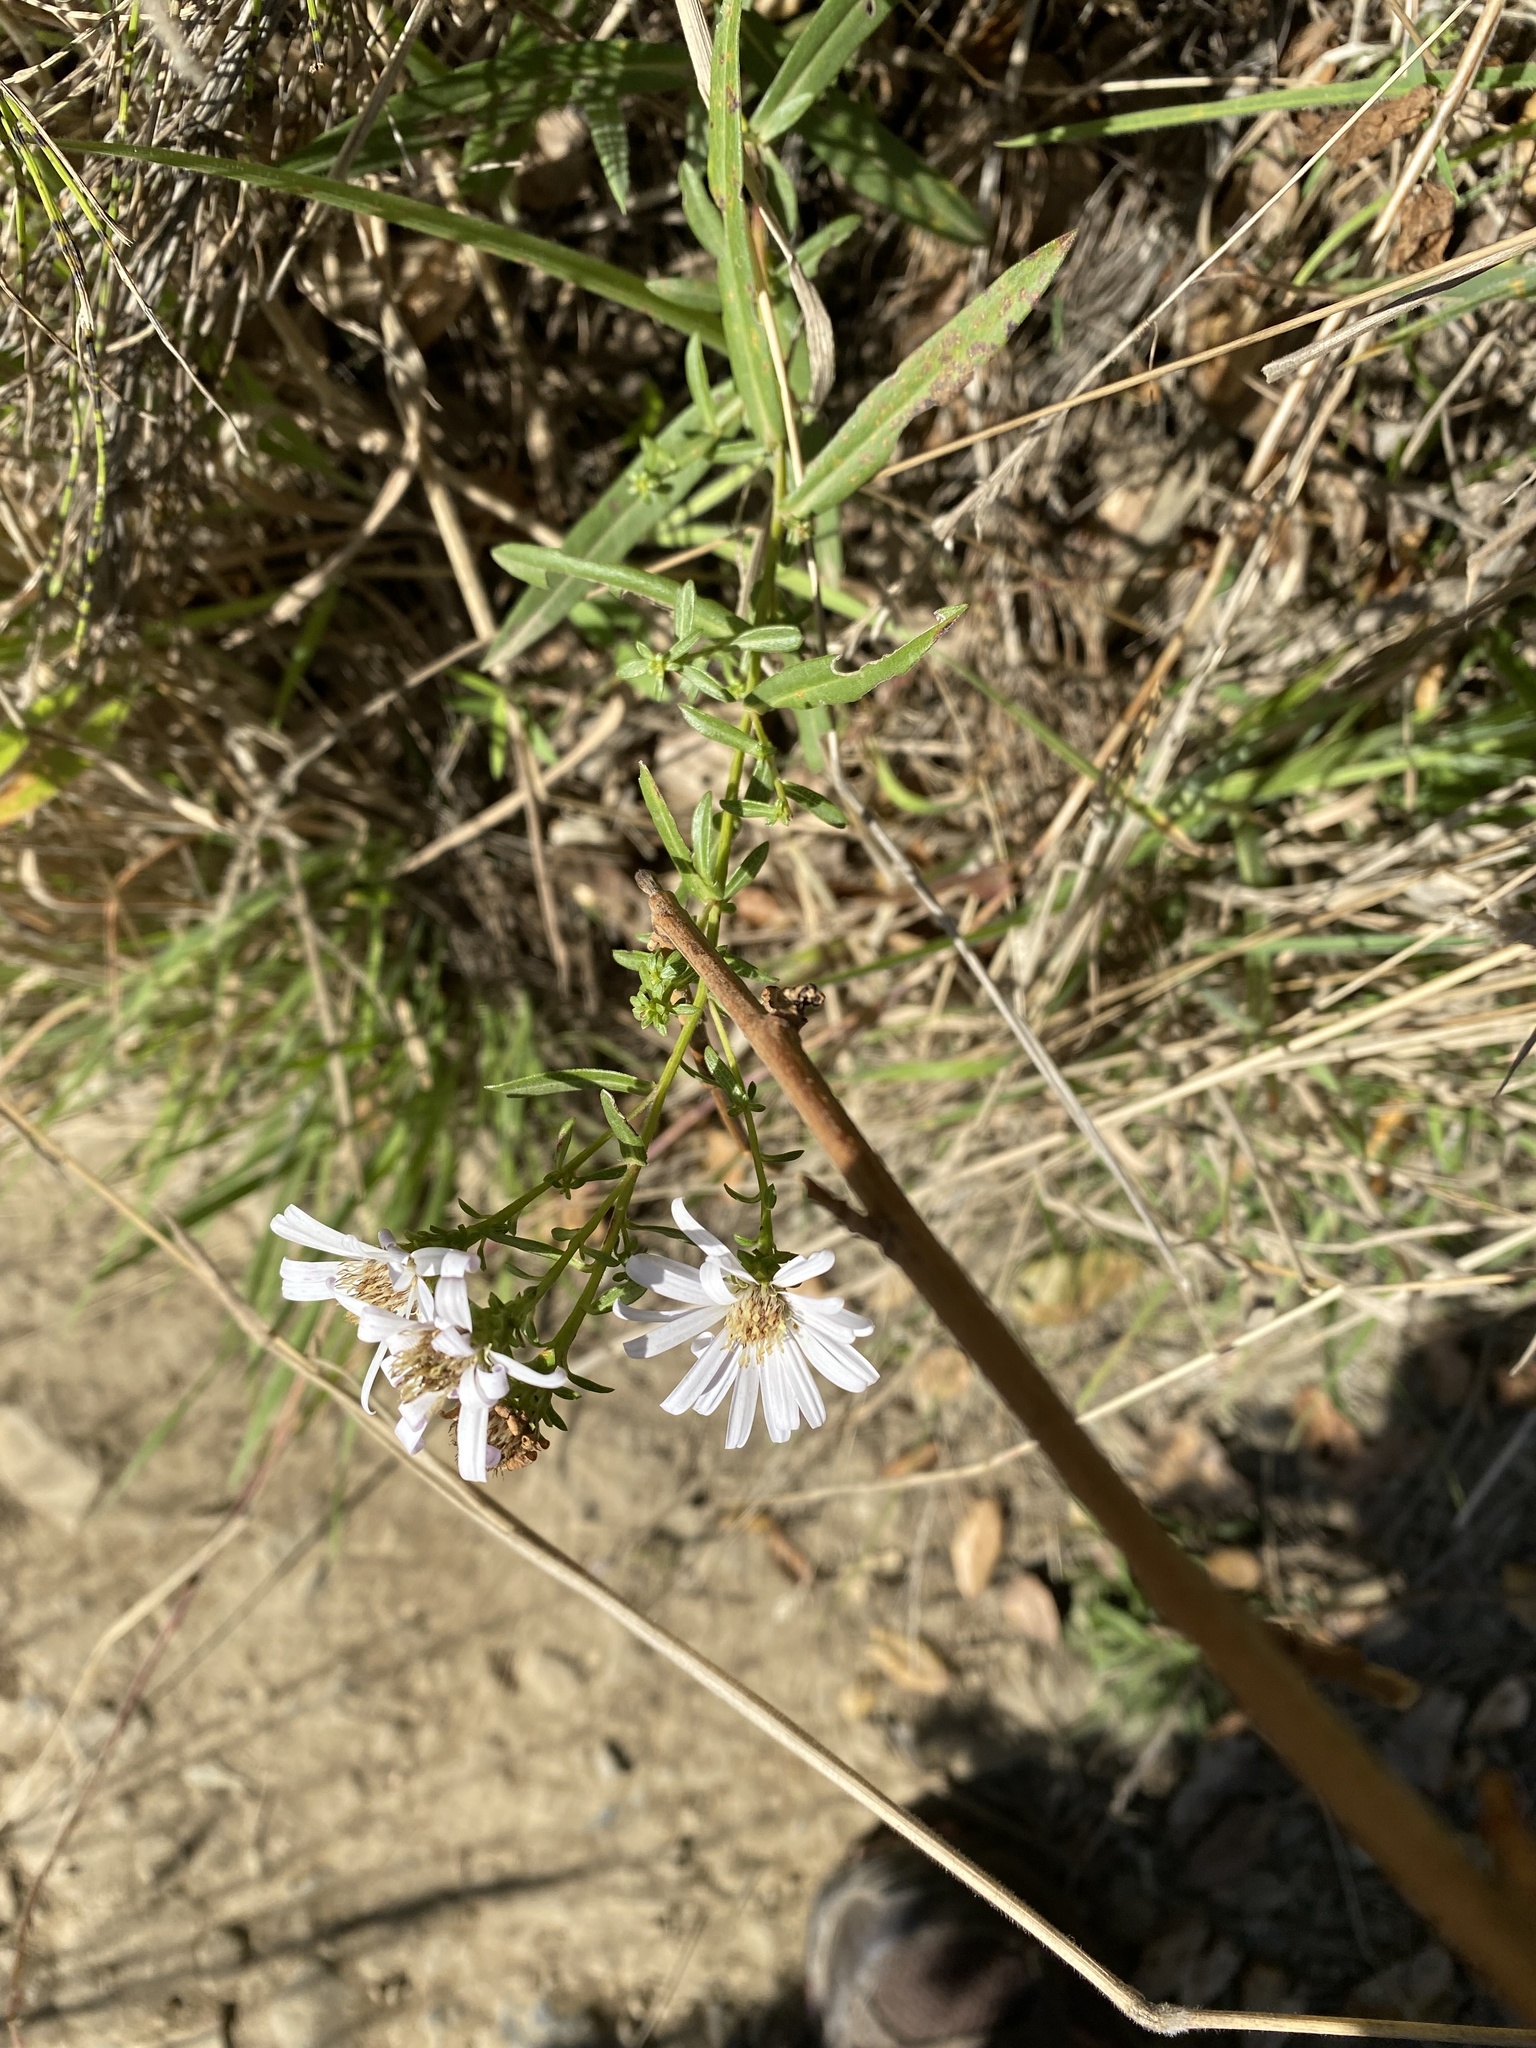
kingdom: Plantae
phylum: Tracheophyta
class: Magnoliopsida
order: Asterales
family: Asteraceae
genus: Symphyotrichum
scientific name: Symphyotrichum chilense
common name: Pacific aster
